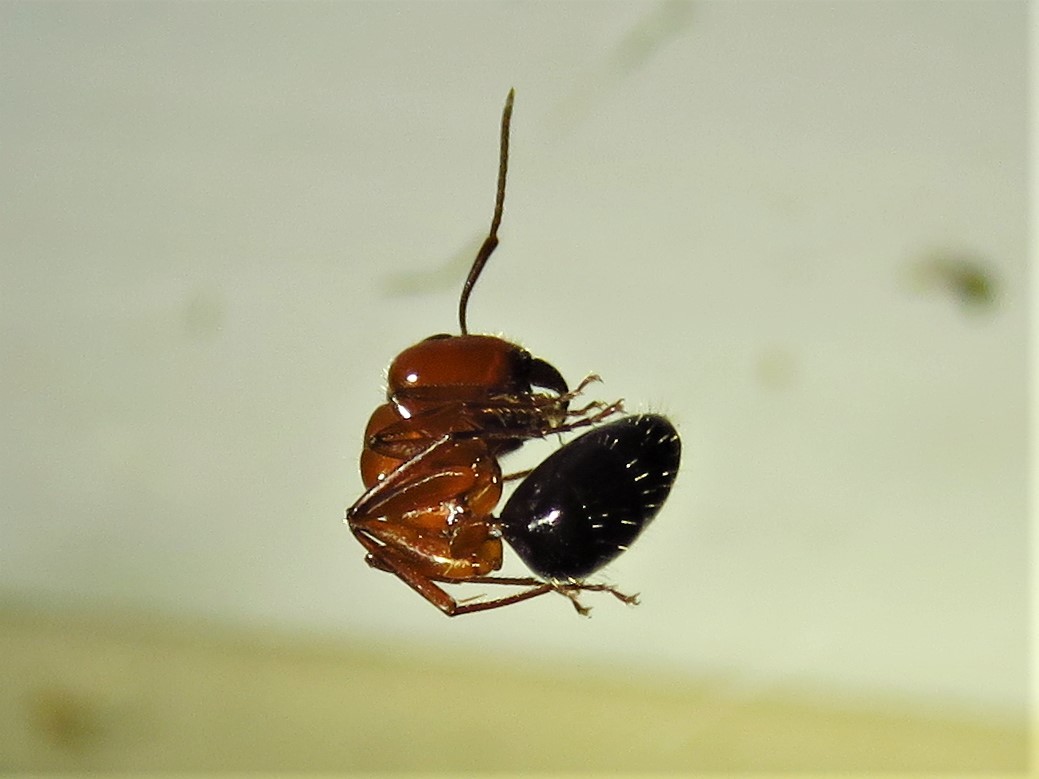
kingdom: Animalia
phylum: Arthropoda
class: Insecta
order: Hymenoptera
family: Formicidae
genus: Camponotus
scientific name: Camponotus discolor
